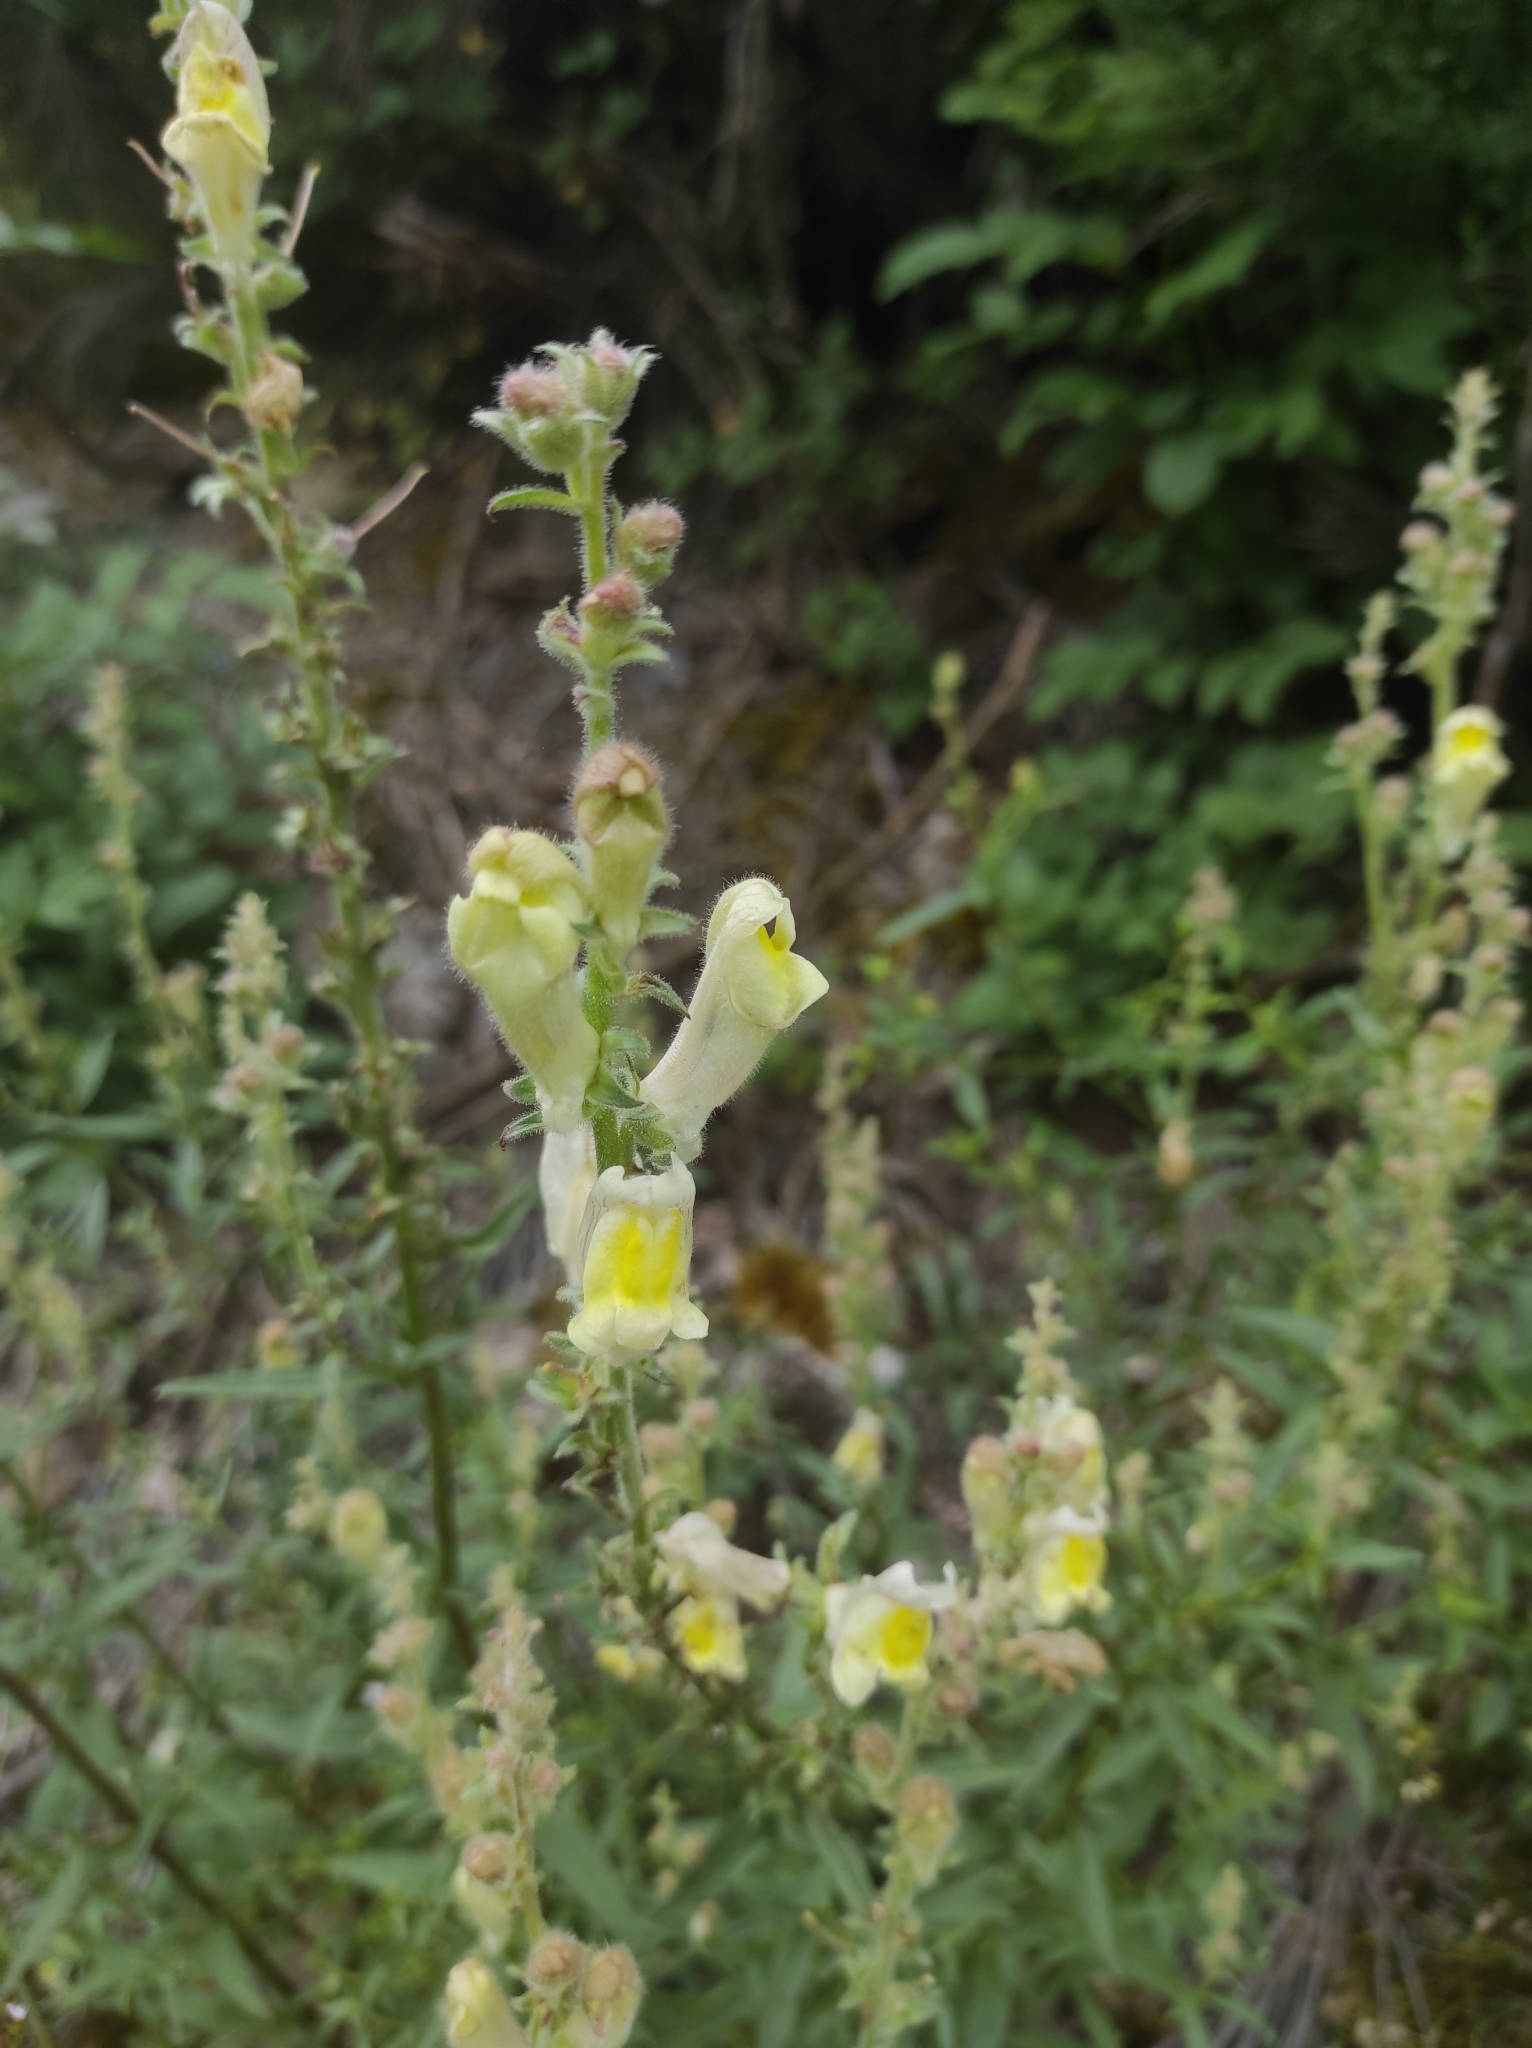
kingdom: Plantae
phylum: Tracheophyta
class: Magnoliopsida
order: Lamiales
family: Plantaginaceae
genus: Antirrhinum
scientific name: Antirrhinum braun-blanquetii
